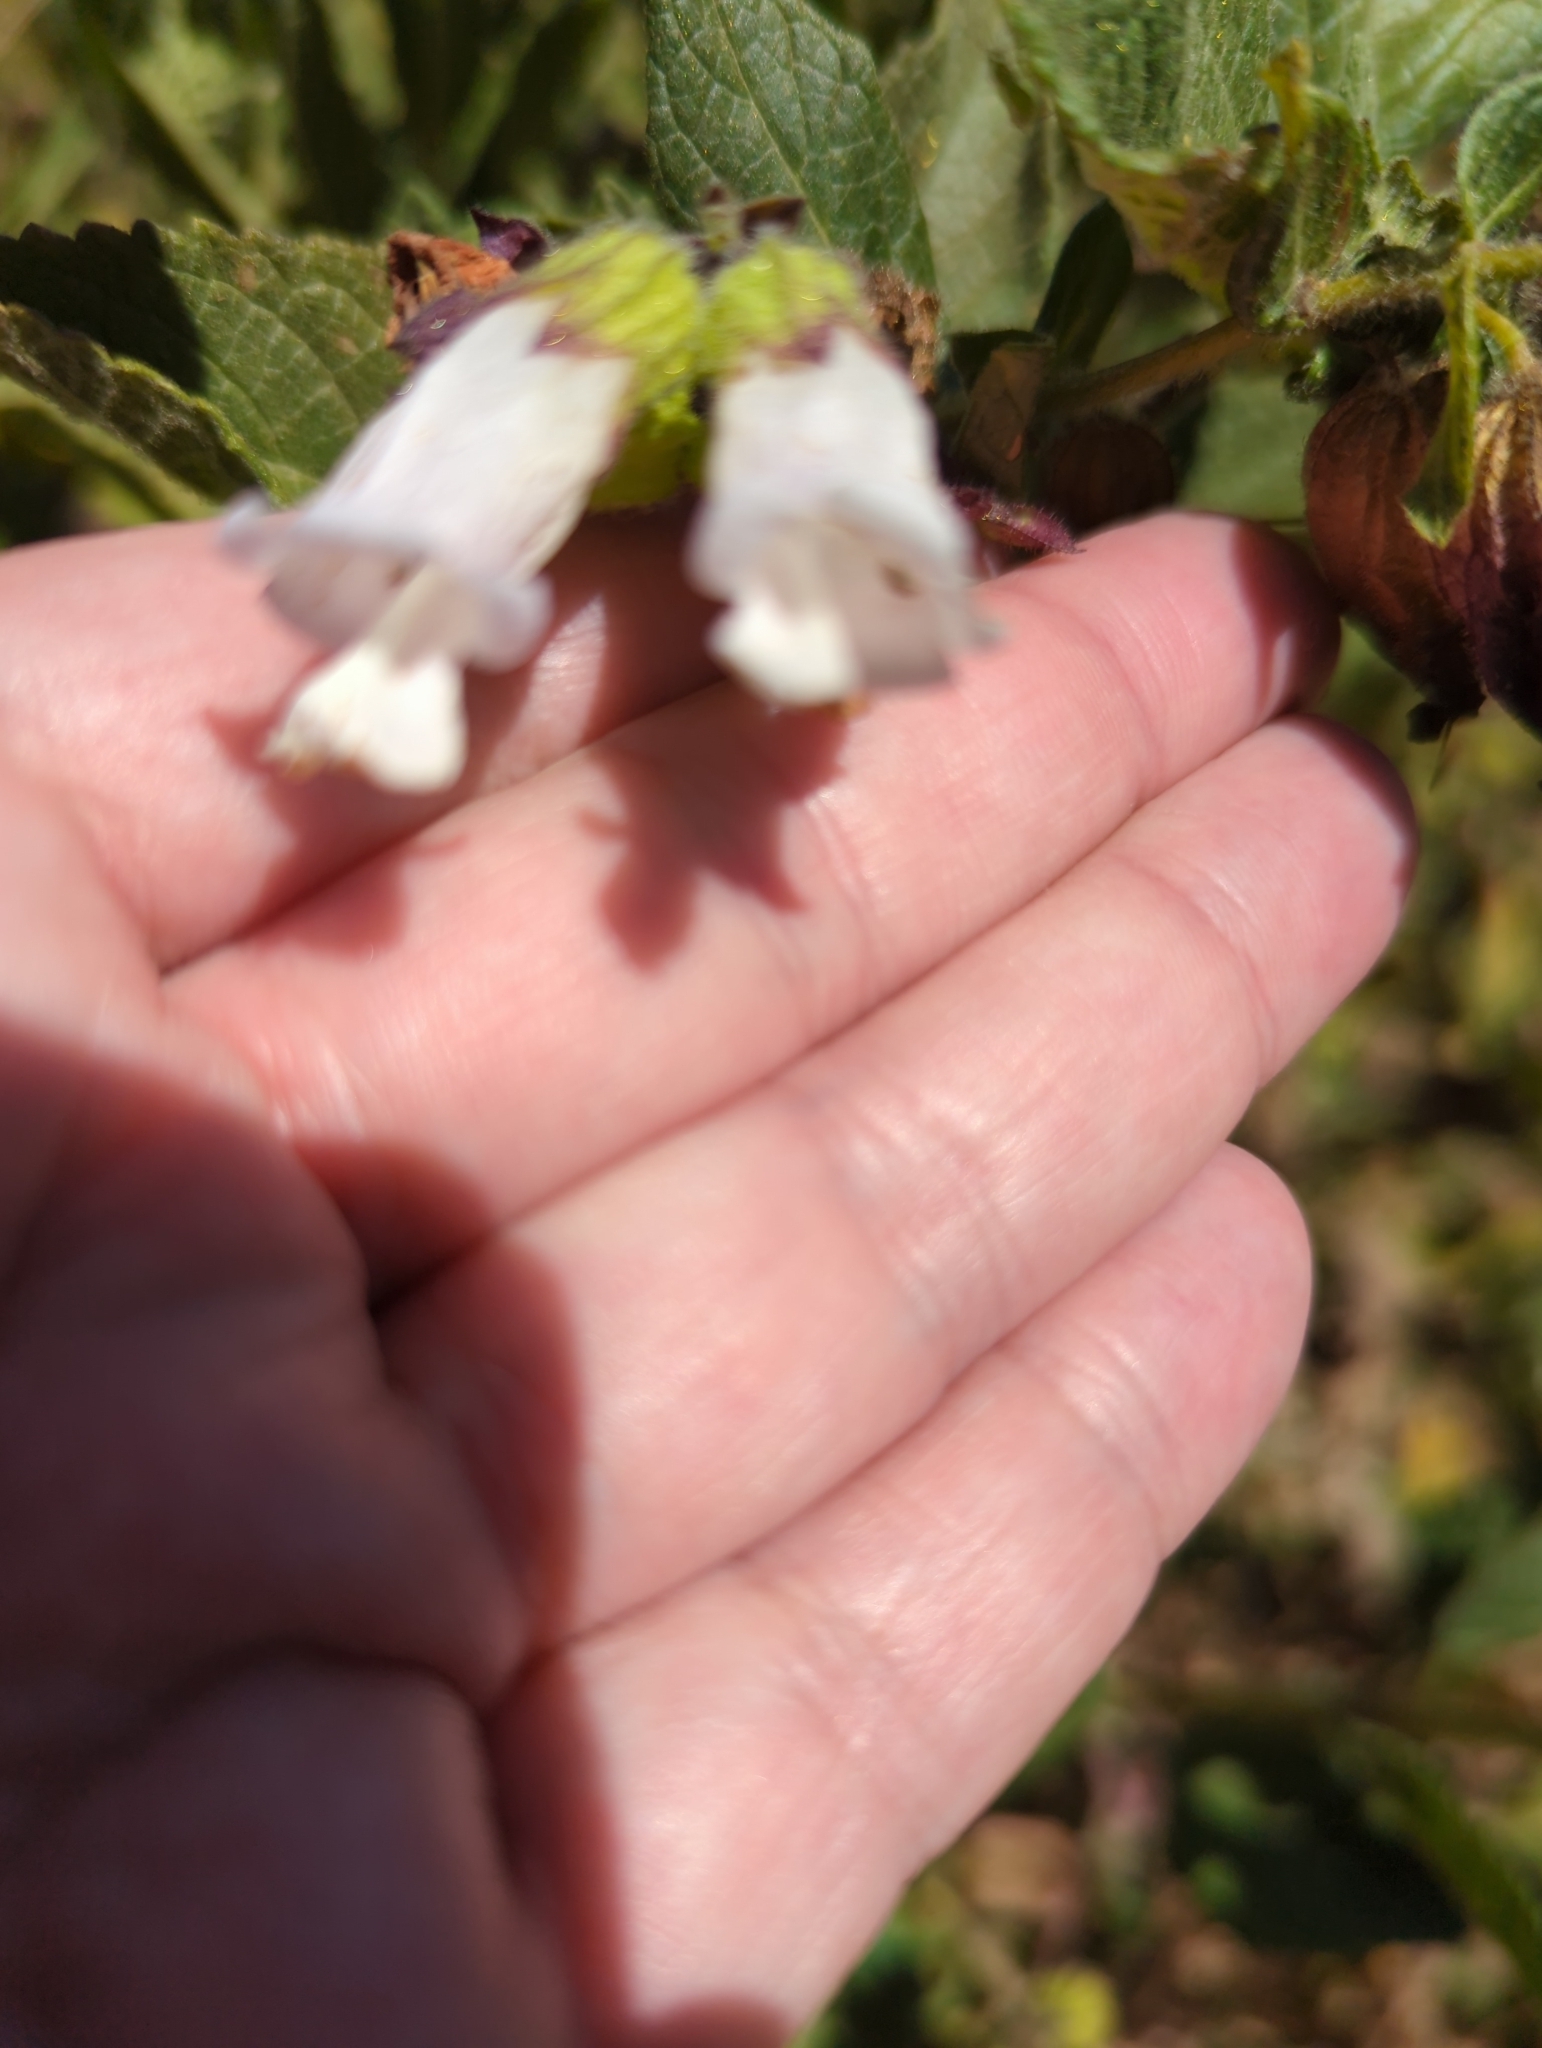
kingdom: Plantae
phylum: Tracheophyta
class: Magnoliopsida
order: Lamiales
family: Lamiaceae
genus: Lepechinia
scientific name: Lepechinia calycina
